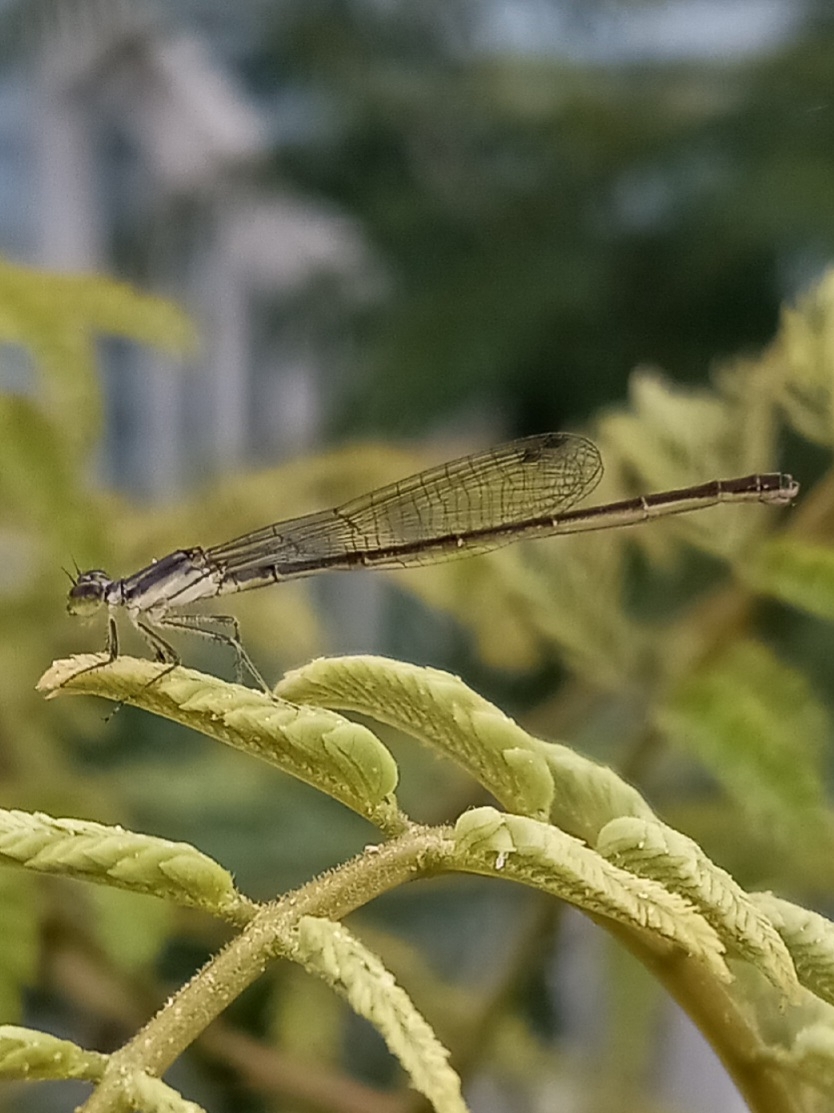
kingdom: Animalia
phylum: Arthropoda
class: Insecta
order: Odonata
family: Coenagrionidae
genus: Ischnura
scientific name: Ischnura posita
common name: Fragile forktail
